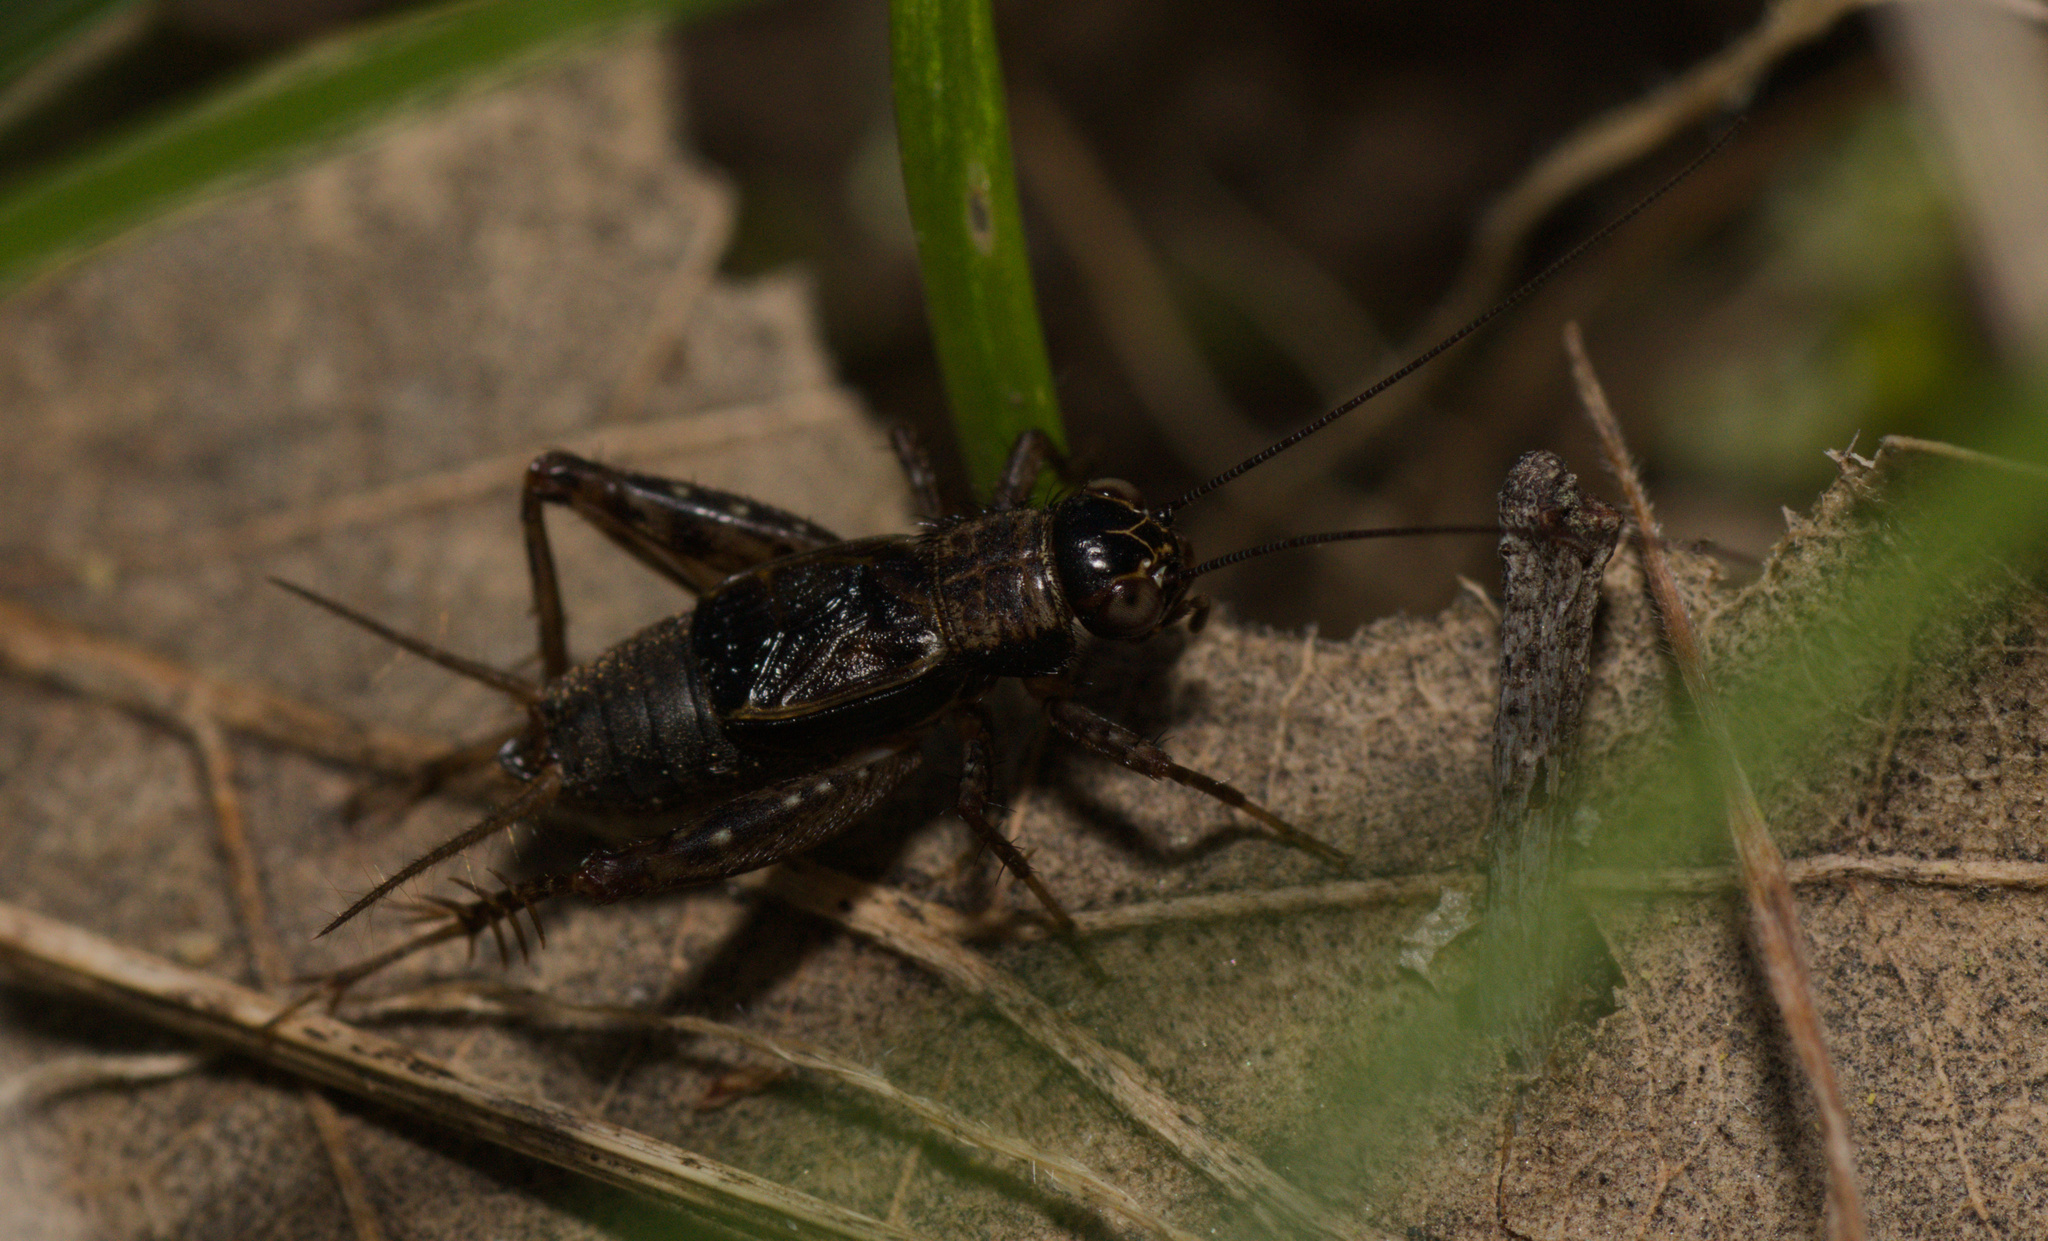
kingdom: Animalia
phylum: Arthropoda
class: Insecta
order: Orthoptera
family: Trigonidiidae
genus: Nemobius
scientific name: Nemobius sylvestris
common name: Wood-cricket
